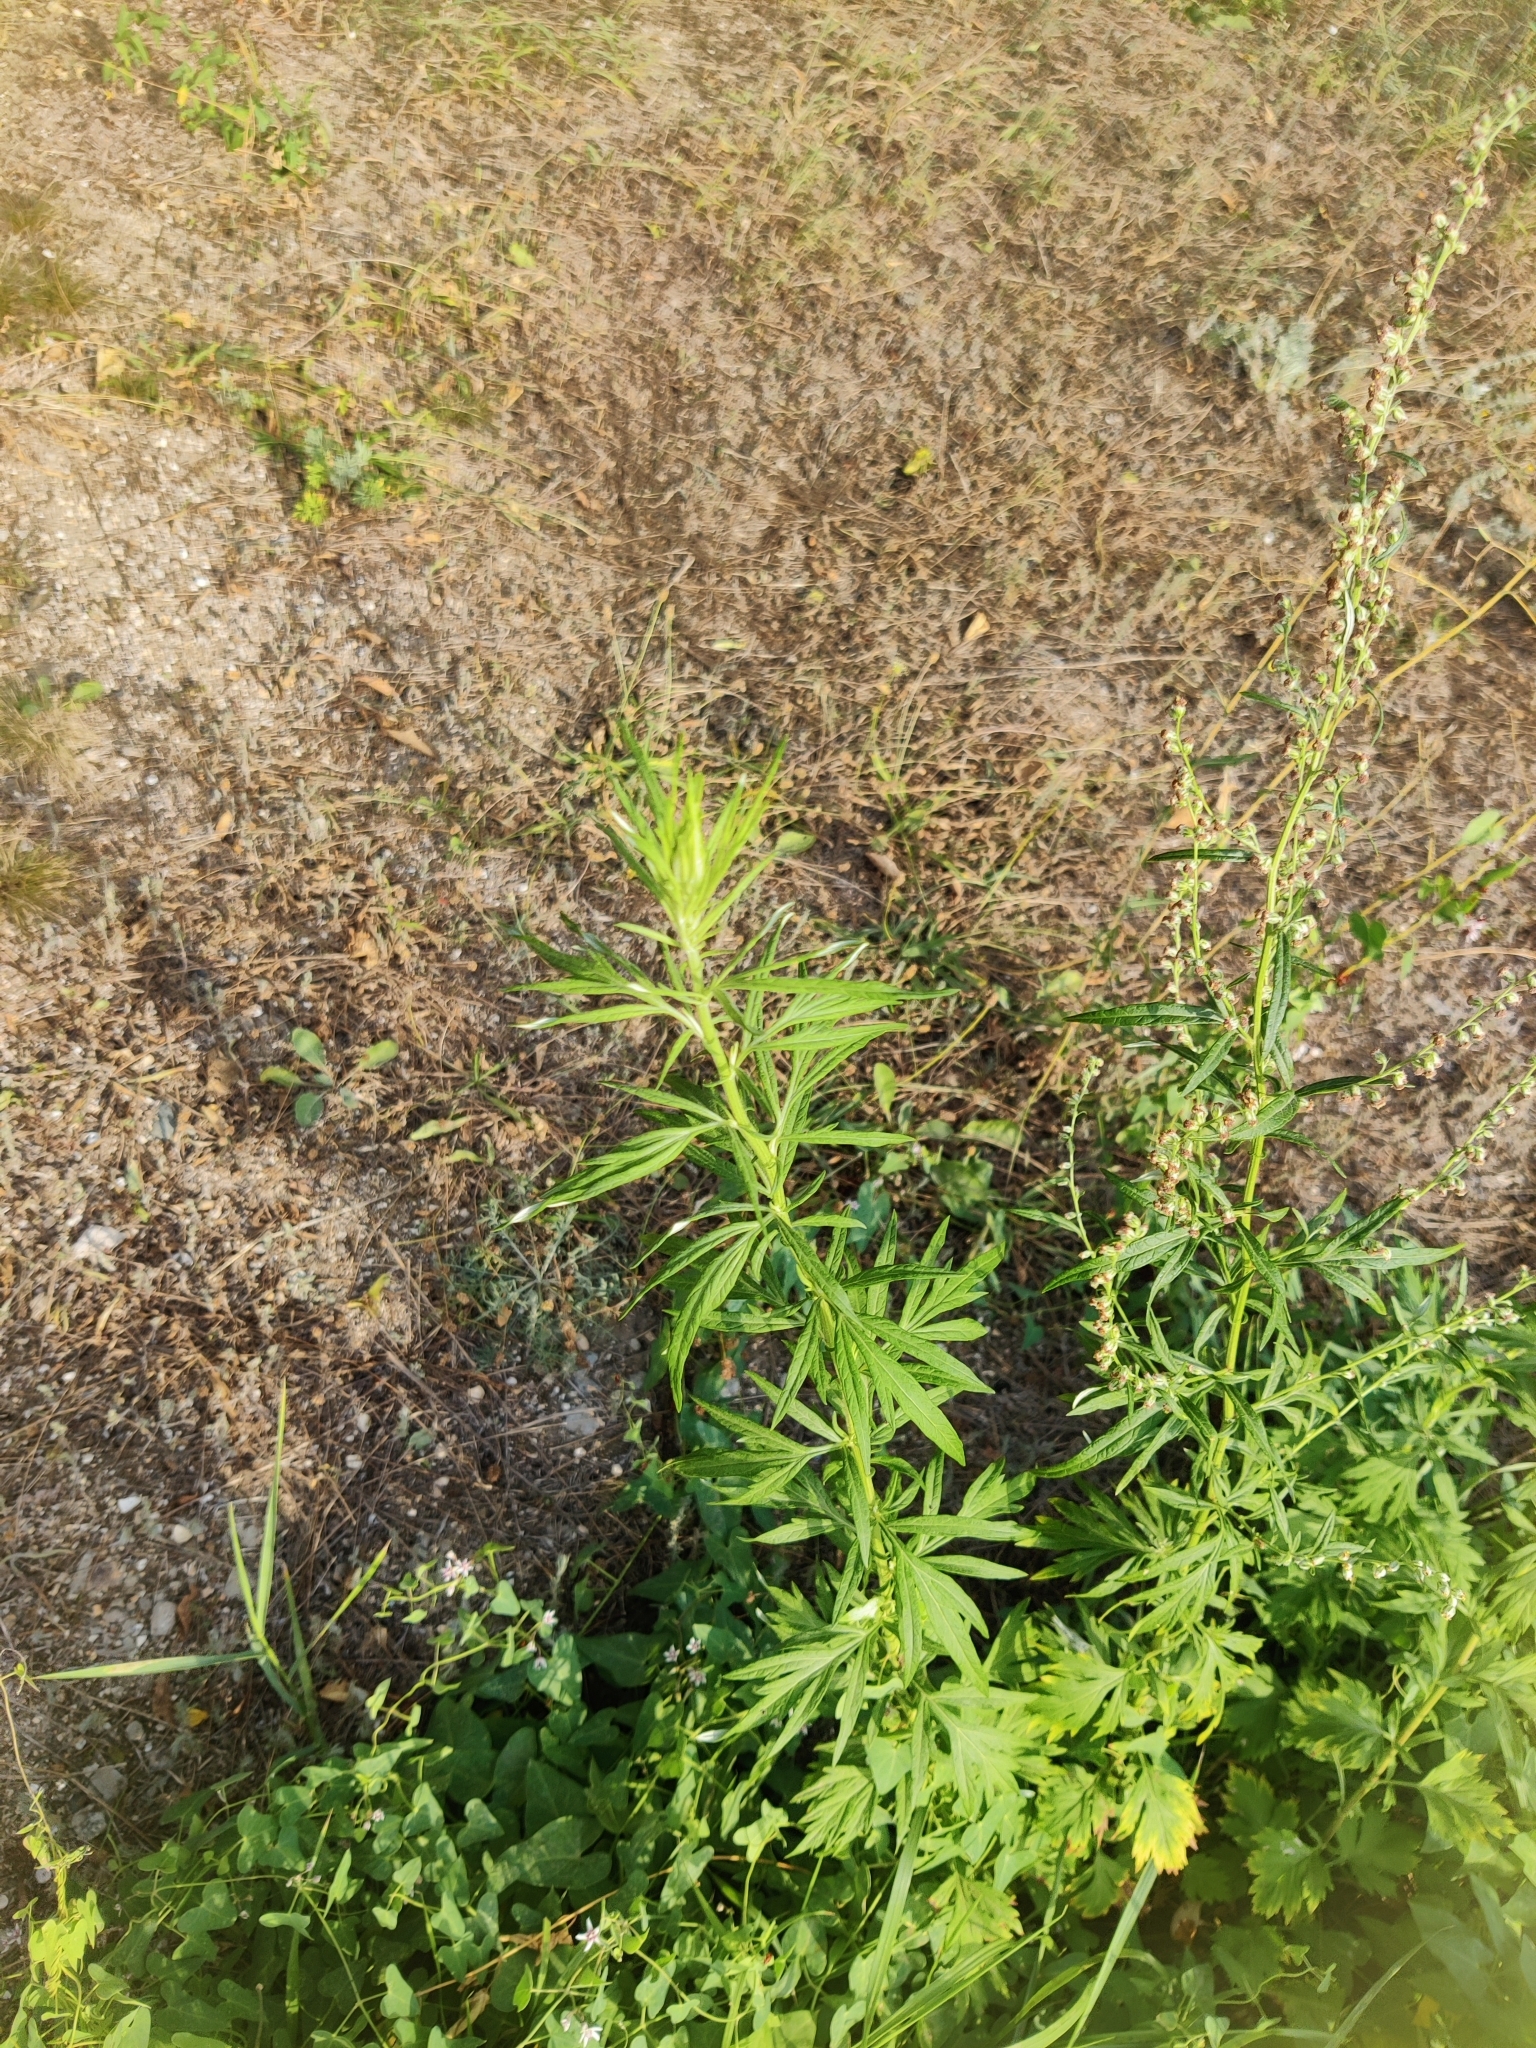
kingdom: Plantae
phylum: Tracheophyta
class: Magnoliopsida
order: Asterales
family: Asteraceae
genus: Artemisia
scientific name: Artemisia vulgaris
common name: Mugwort
